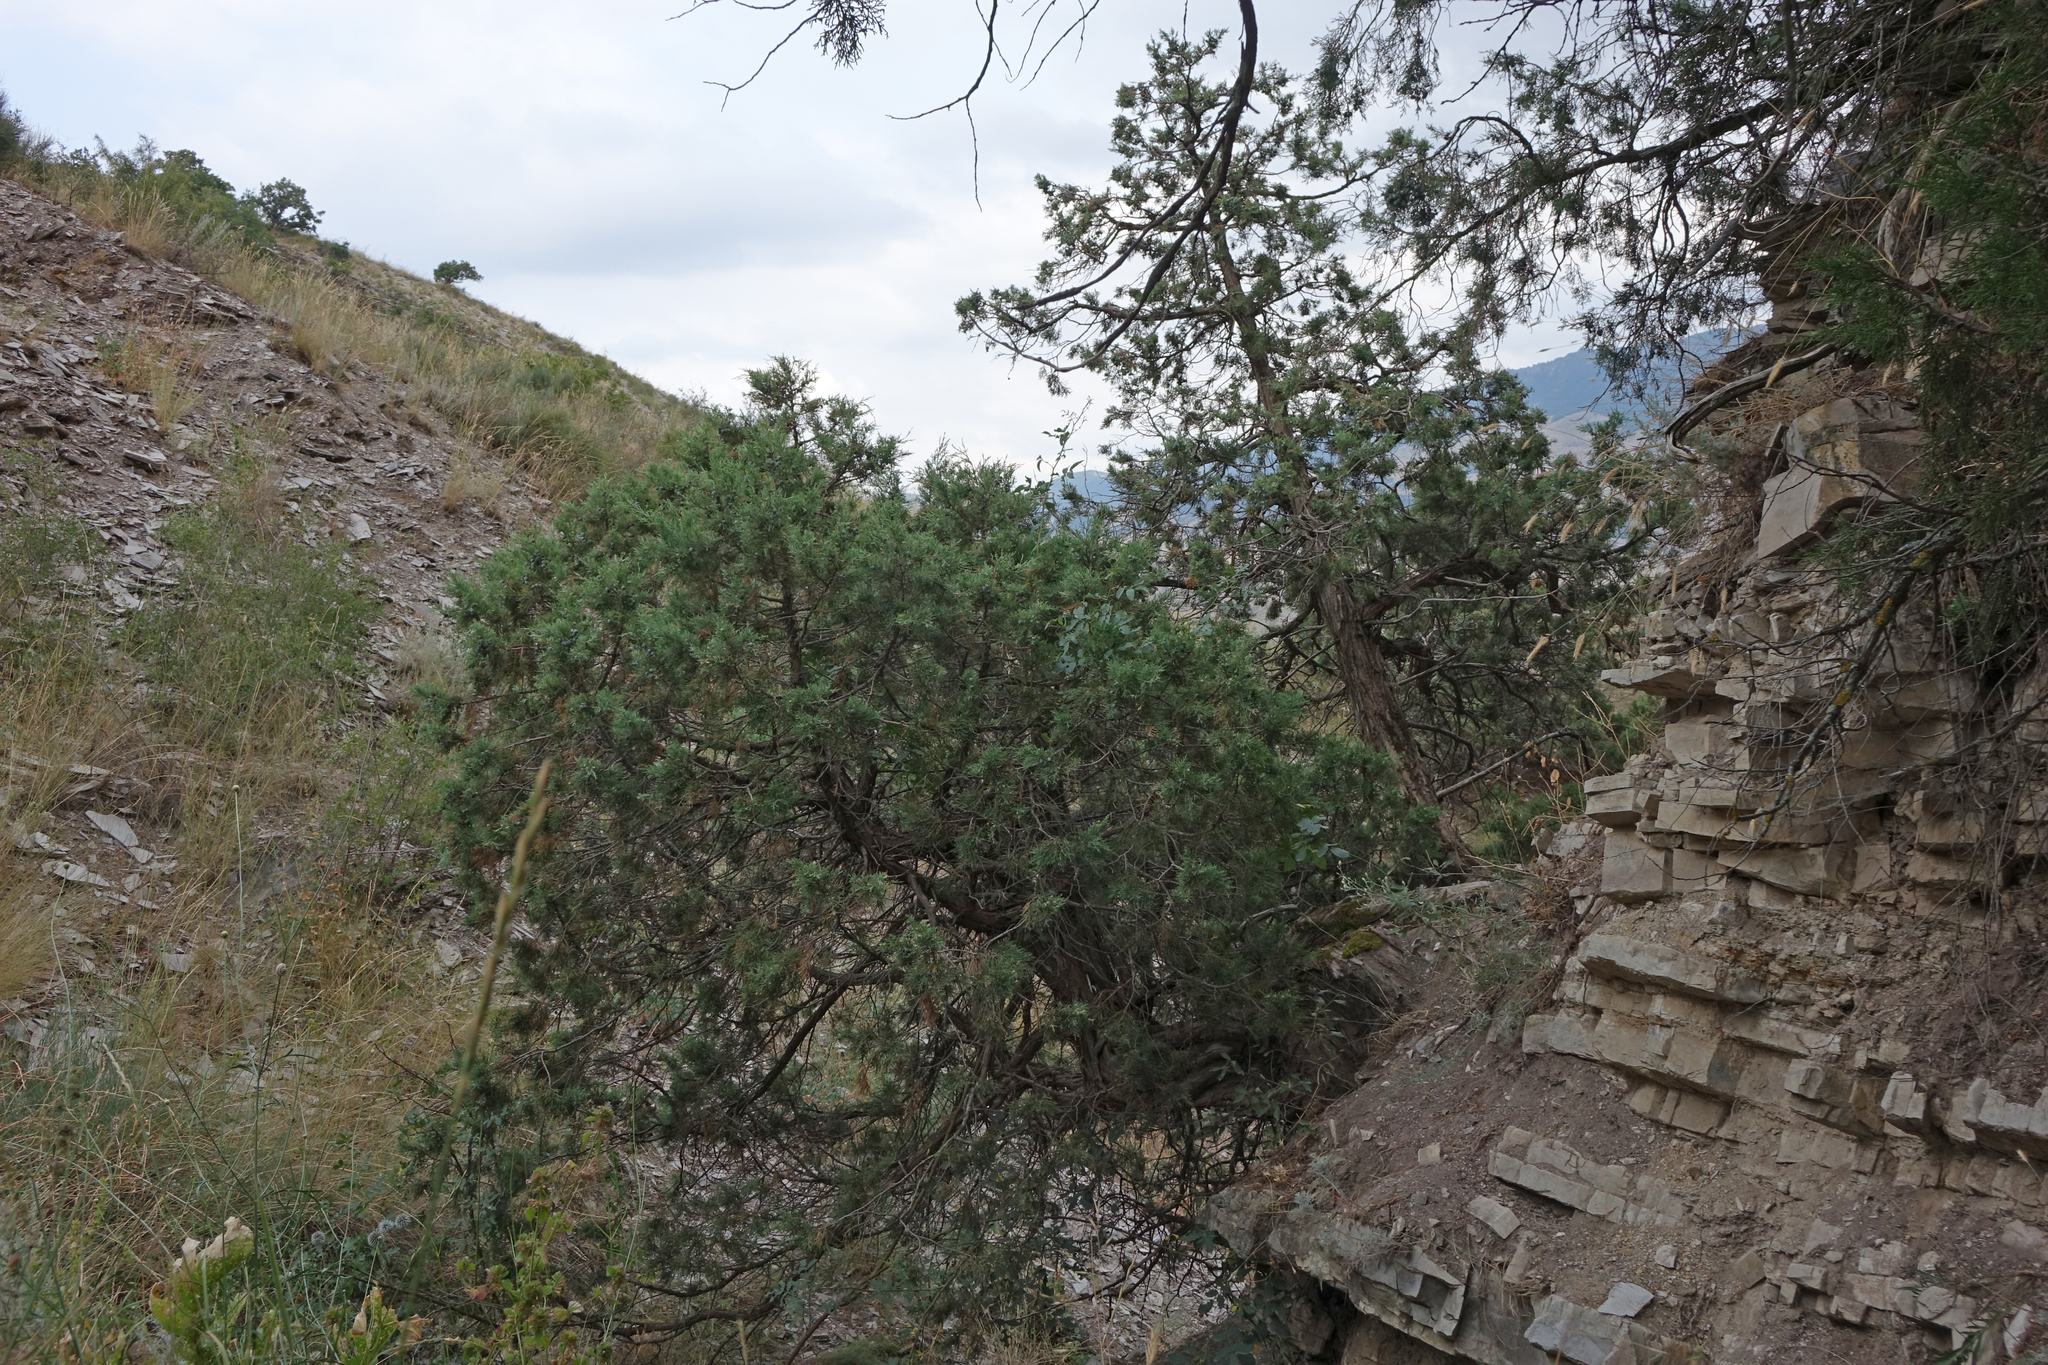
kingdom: Plantae
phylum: Tracheophyta
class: Pinopsida
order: Pinales
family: Cupressaceae
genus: Juniperus
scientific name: Juniperus excelsa
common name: Crimean juniper
